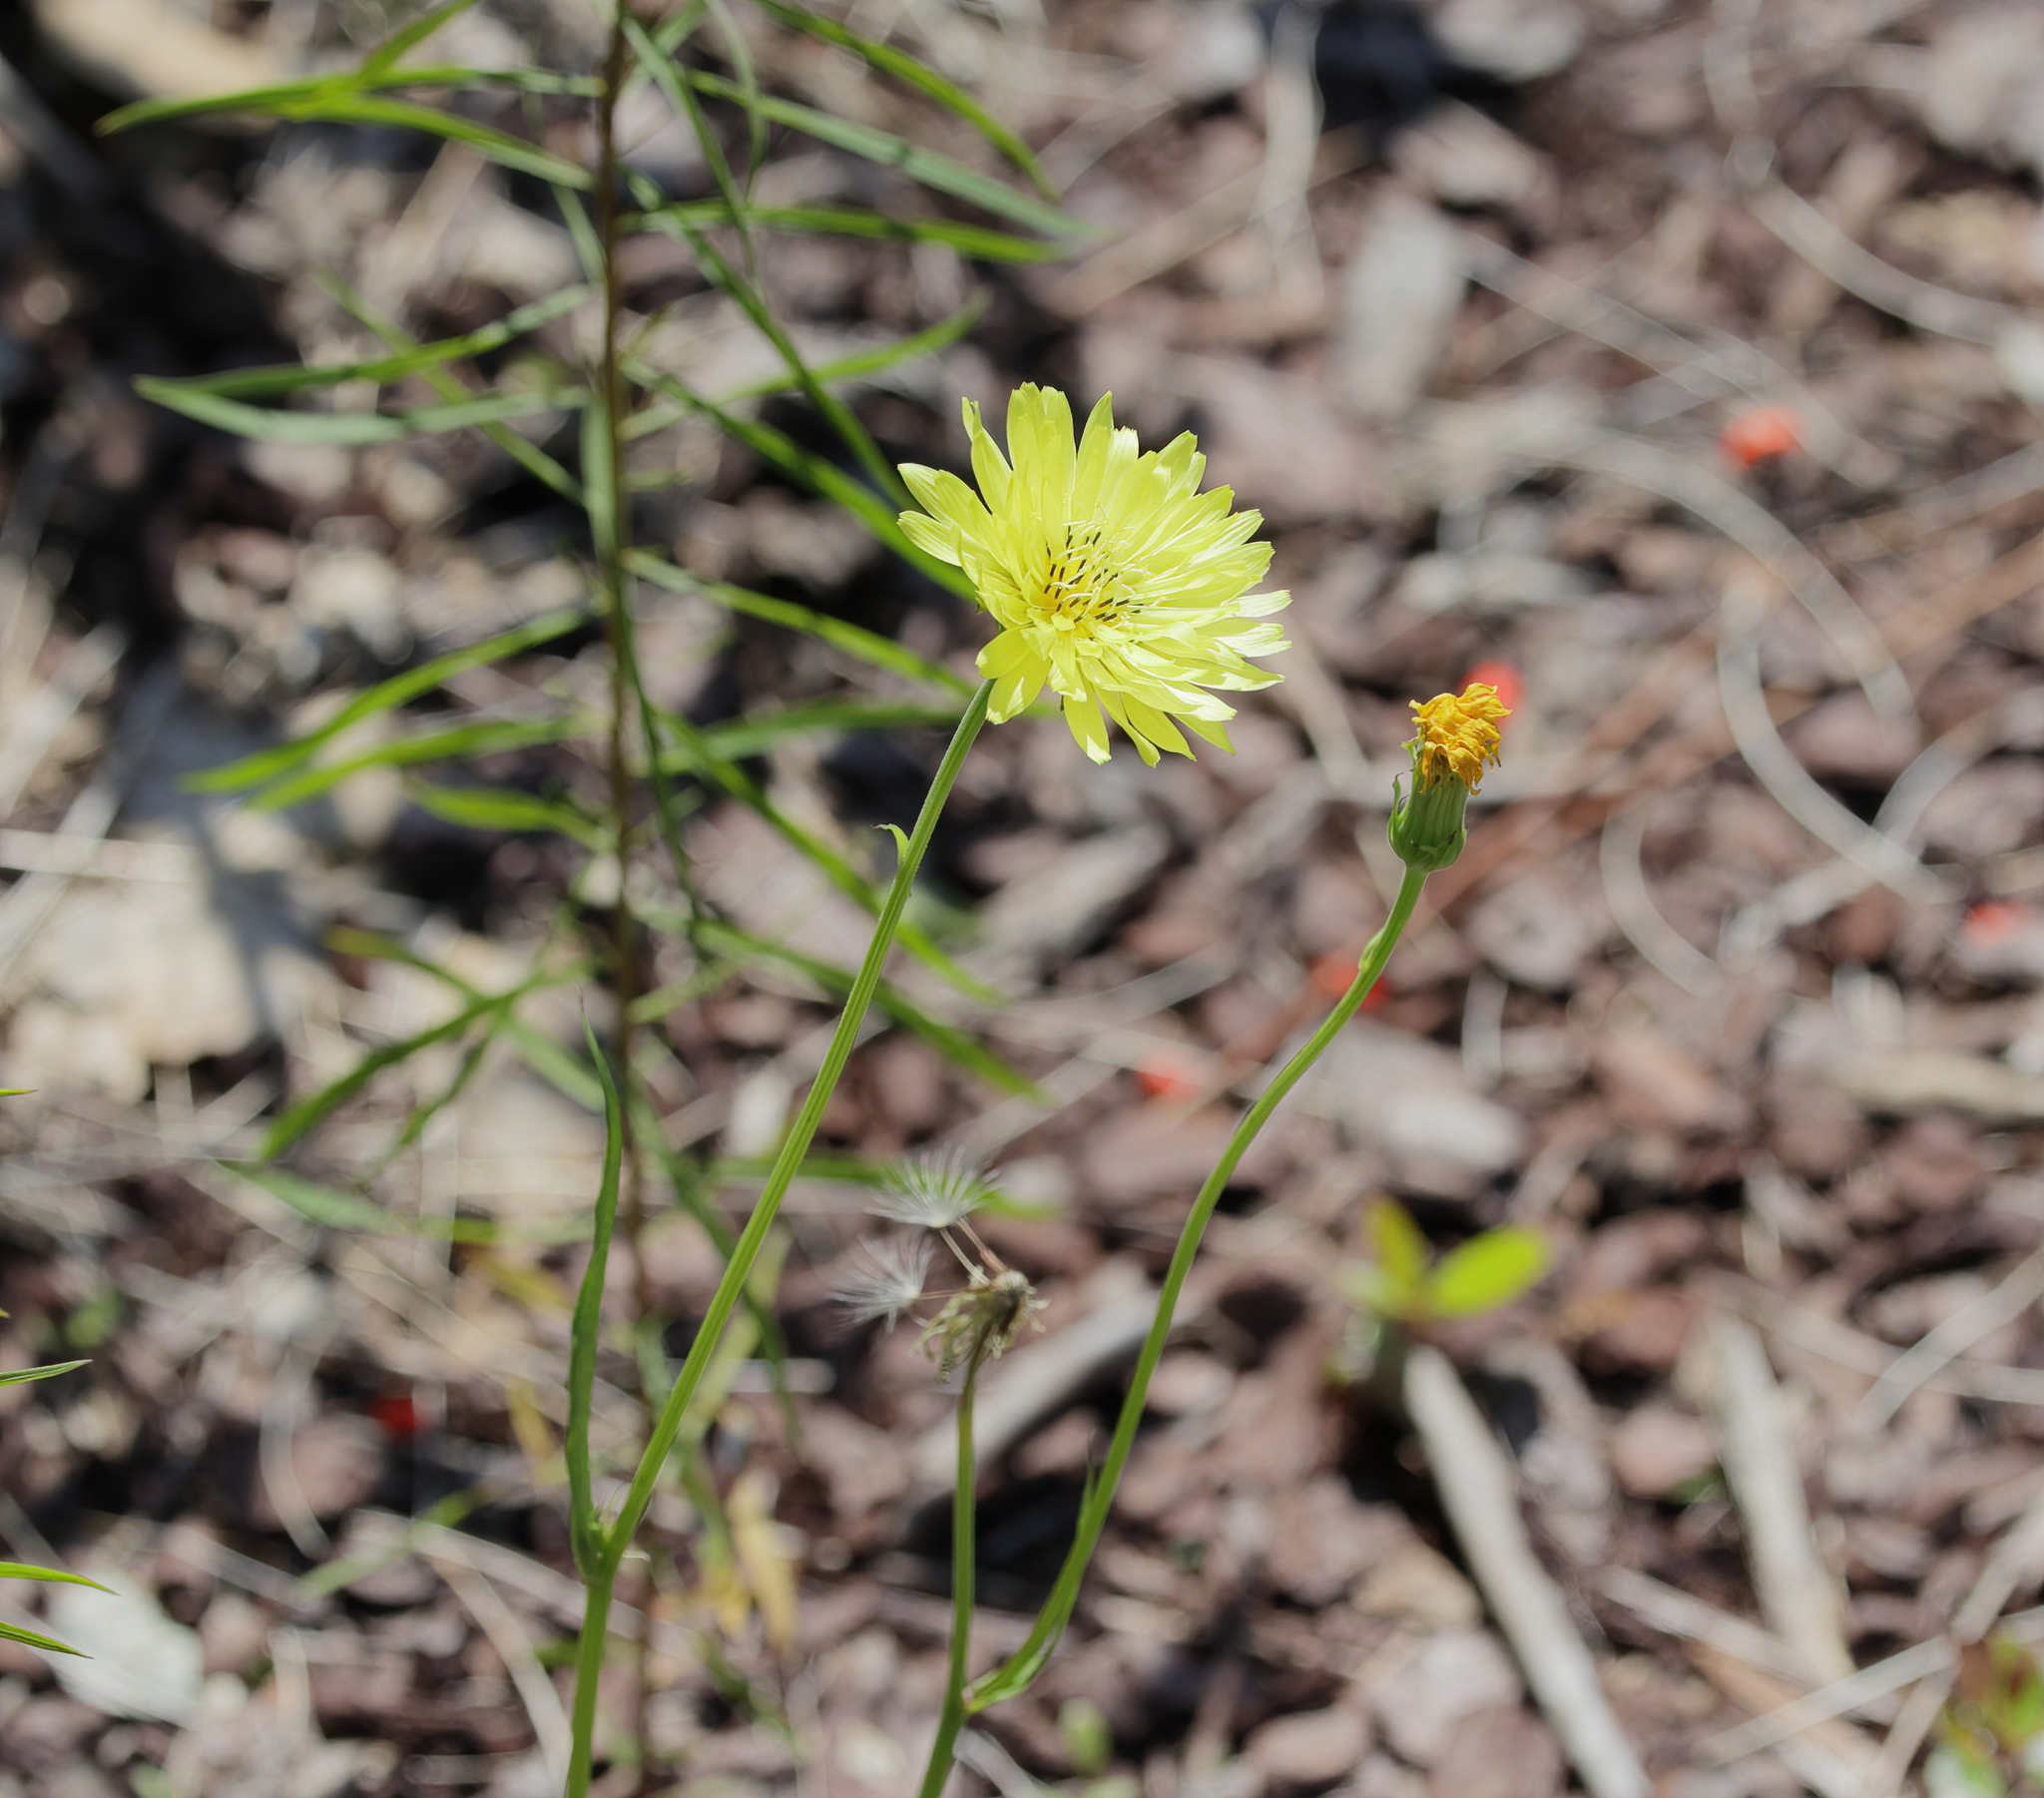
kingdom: Plantae
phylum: Tracheophyta
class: Magnoliopsida
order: Asterales
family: Asteraceae
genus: Pyrrhopappus
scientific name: Pyrrhopappus carolinianus
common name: Carolina desert-chicory
